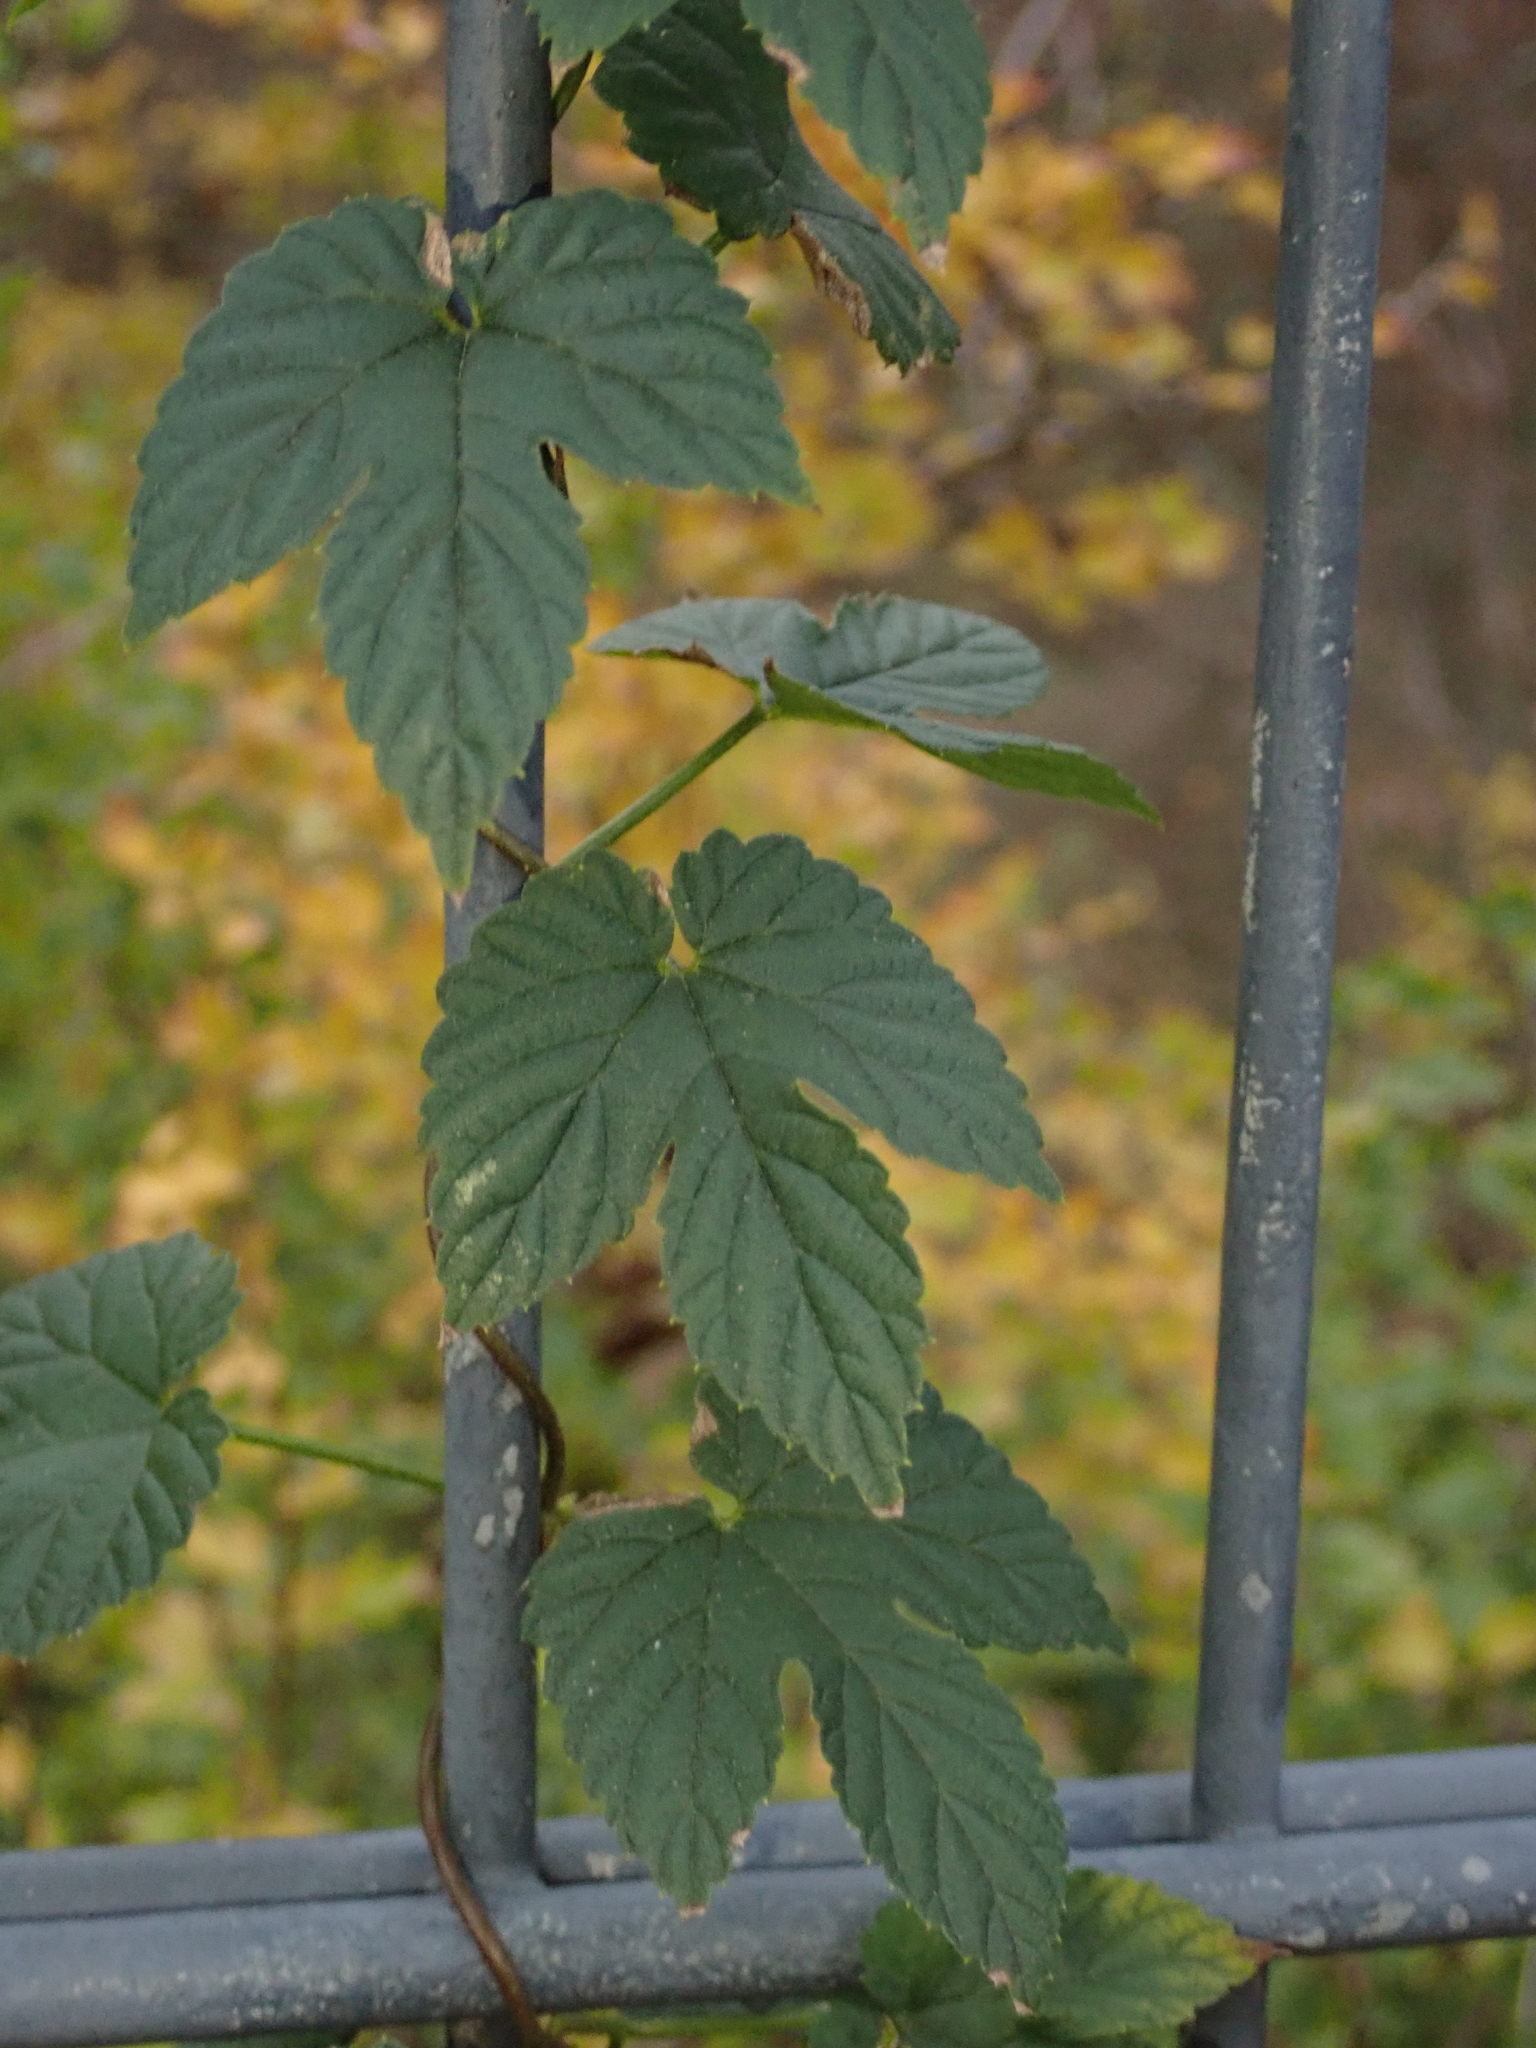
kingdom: Plantae
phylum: Tracheophyta
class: Magnoliopsida
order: Rosales
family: Cannabaceae
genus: Humulus
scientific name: Humulus lupulus
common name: Hop
